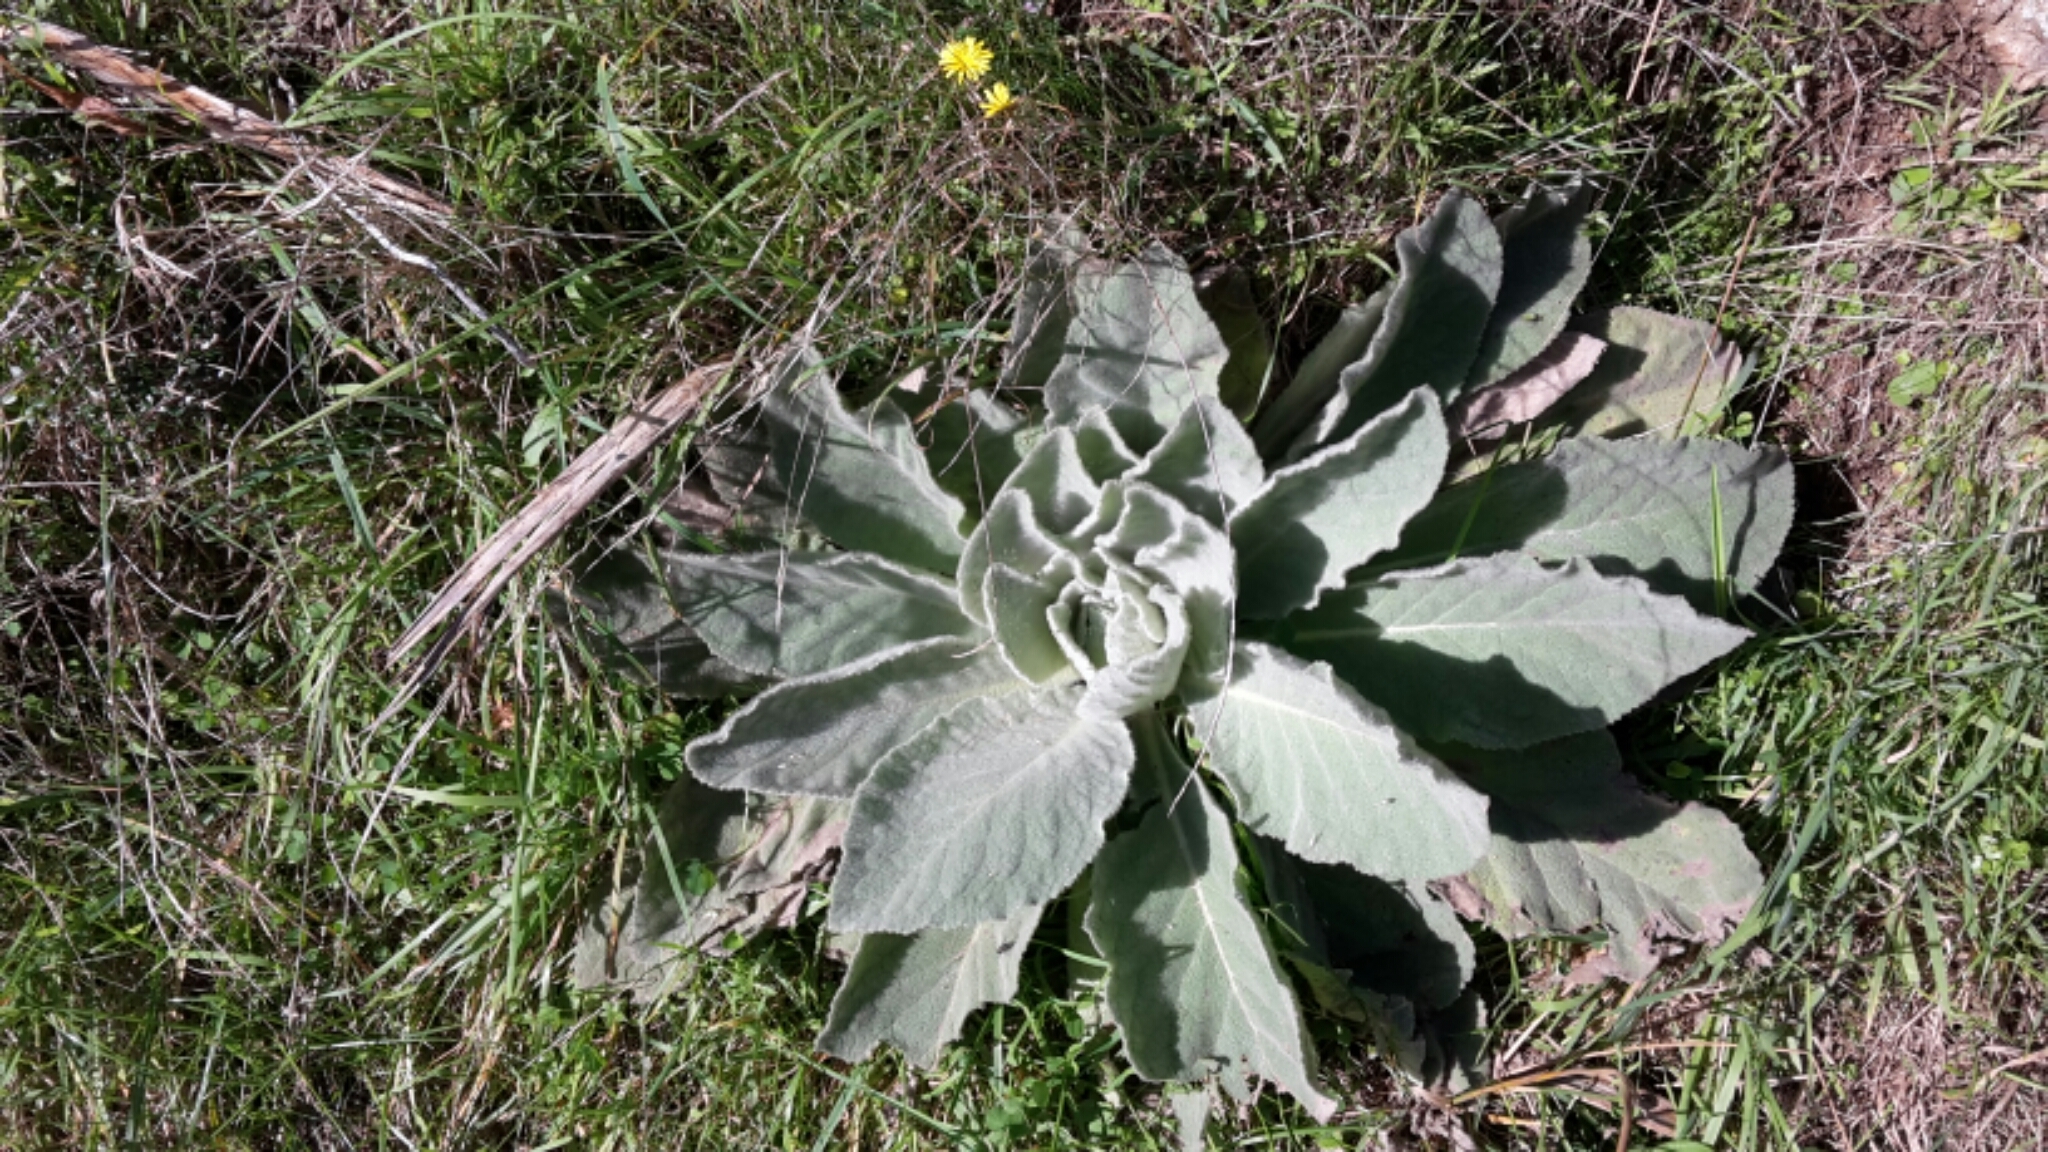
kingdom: Plantae
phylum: Tracheophyta
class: Magnoliopsida
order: Lamiales
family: Scrophulariaceae
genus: Verbascum
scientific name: Verbascum thapsus
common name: Common mullein
